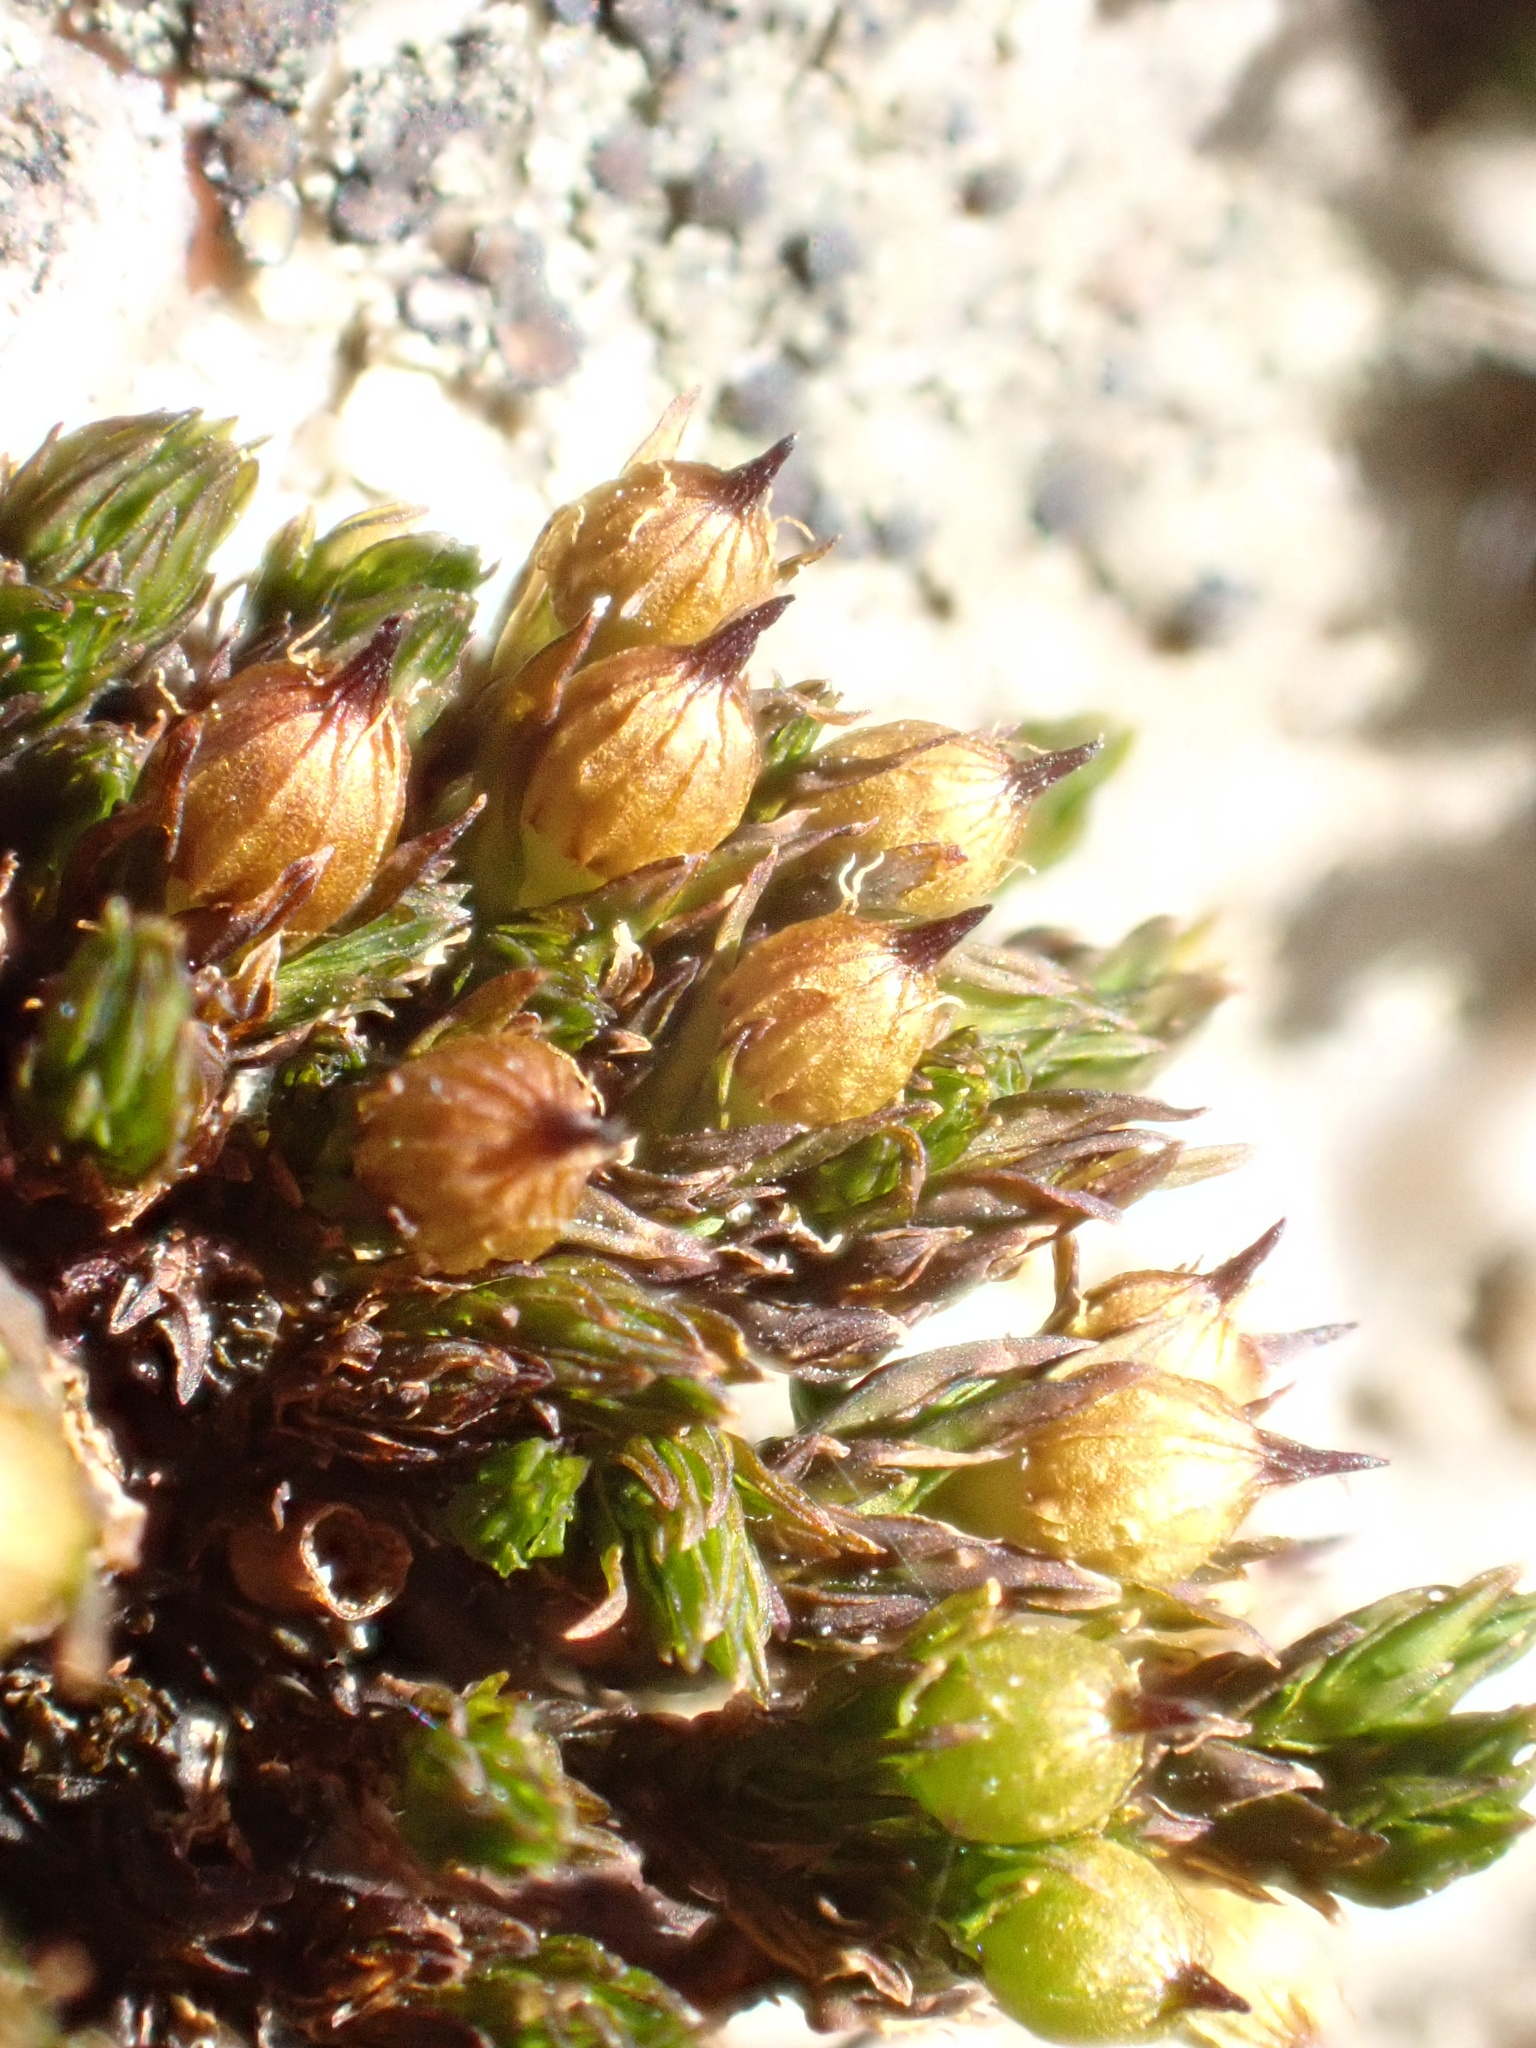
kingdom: Plantae
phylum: Bryophyta
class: Bryopsida
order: Orthotrichales
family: Orthotrichaceae
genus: Orthotrichum
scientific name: Orthotrichum cupulatum
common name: Hooded bristle-moss
